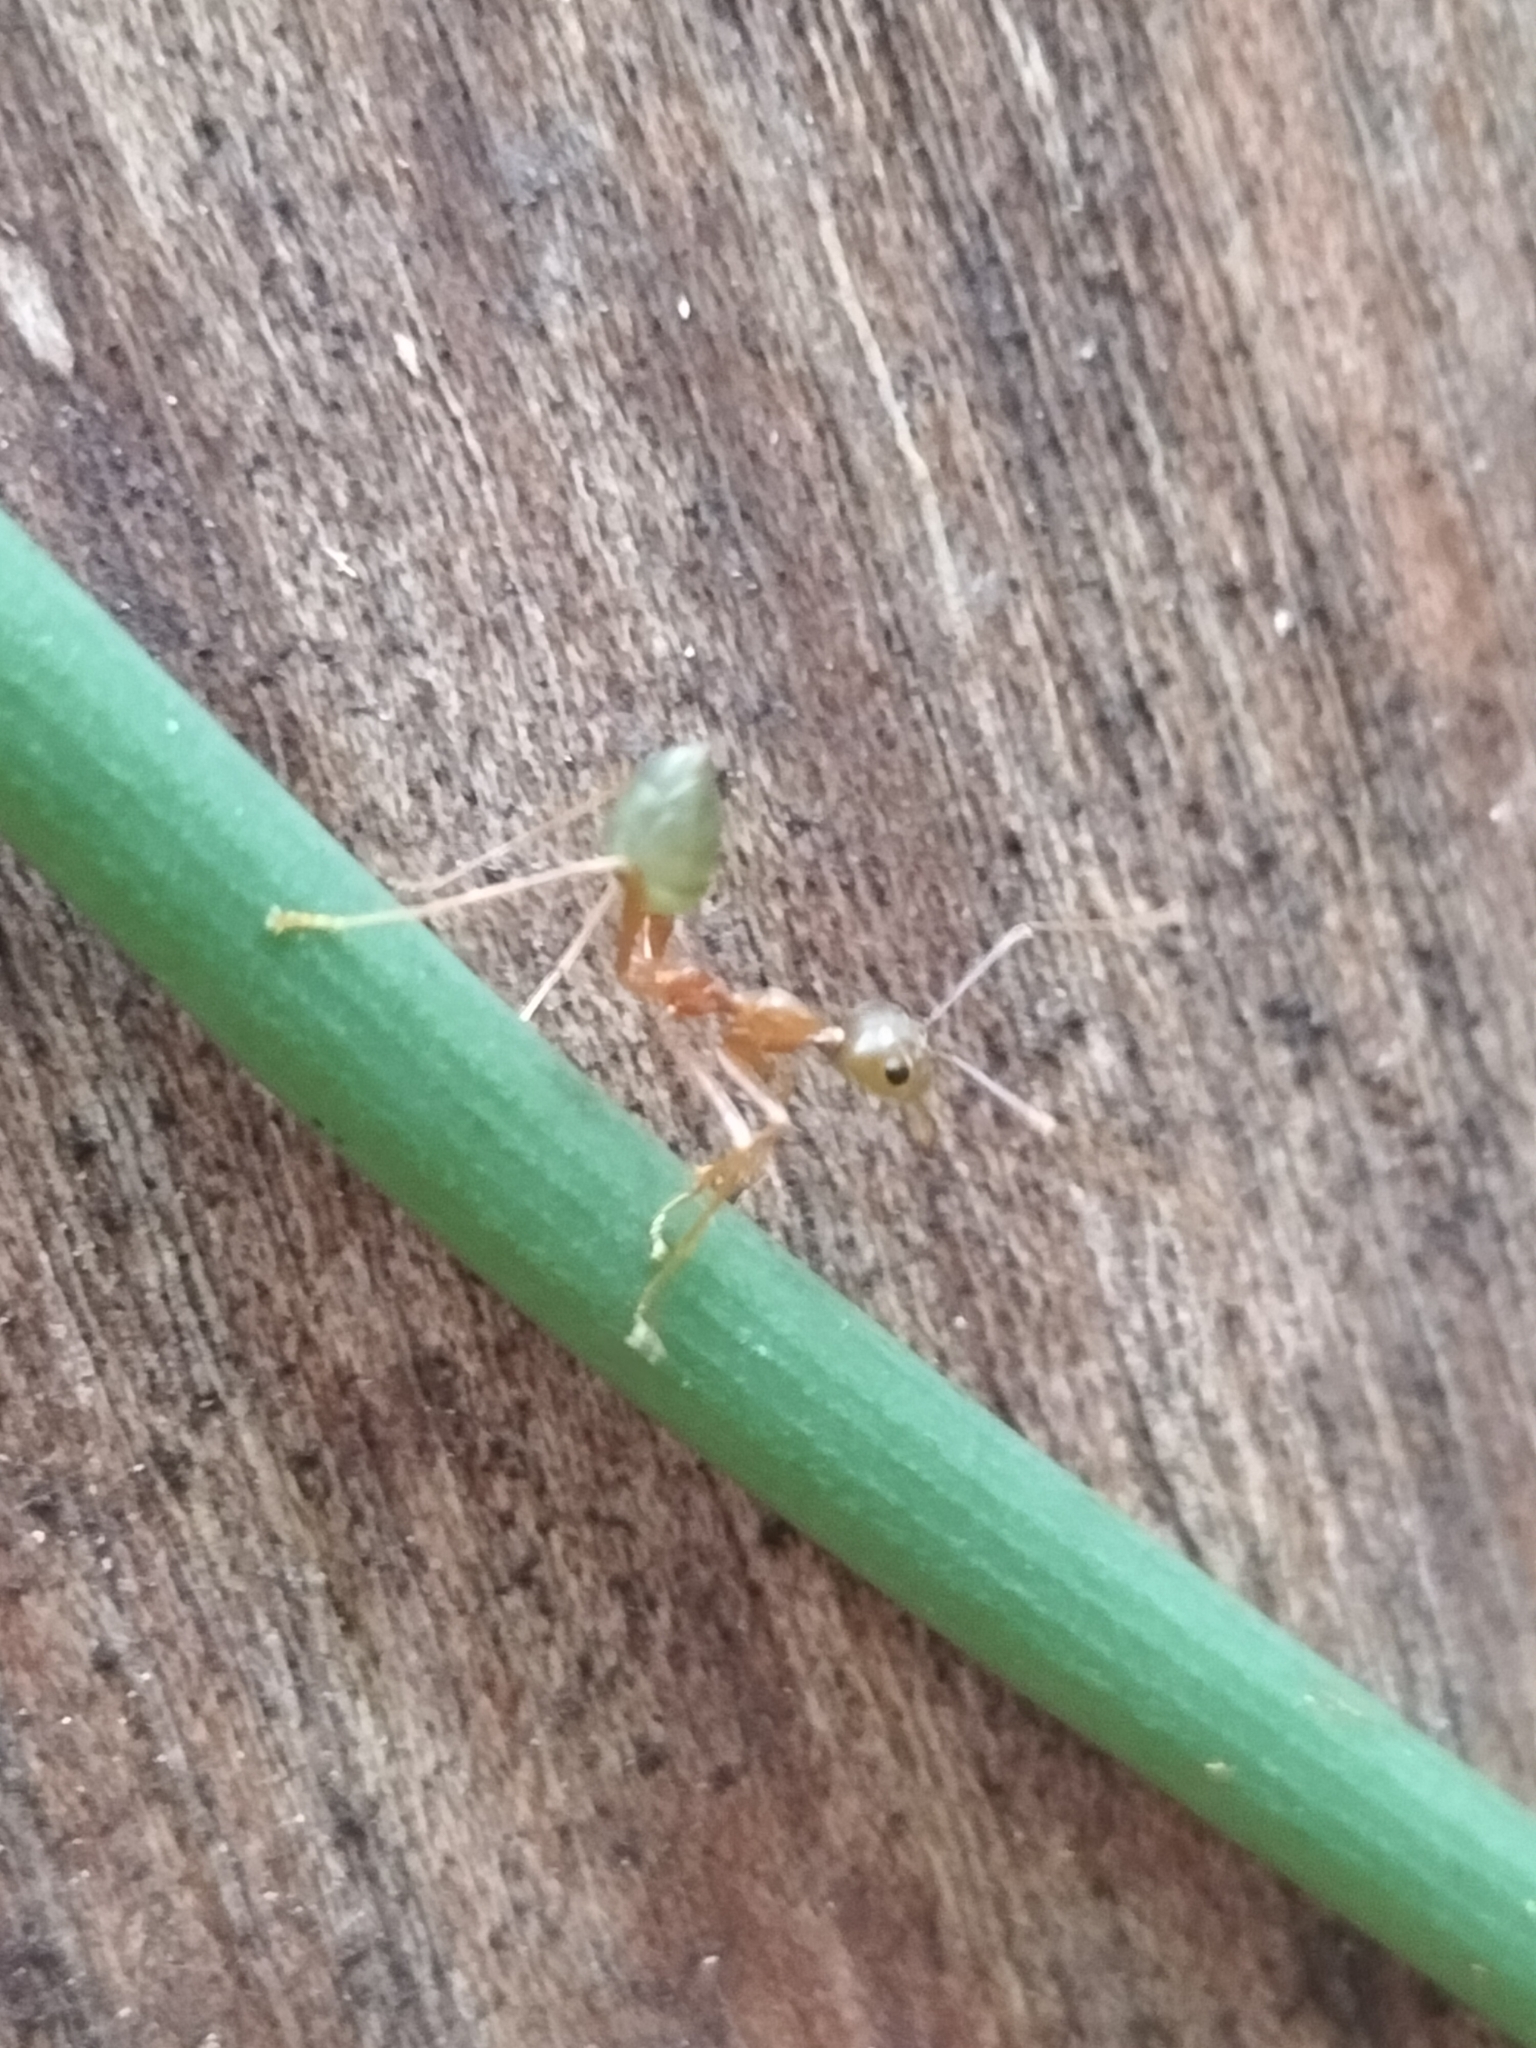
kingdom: Animalia
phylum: Arthropoda
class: Insecta
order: Hymenoptera
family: Formicidae
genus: Oecophylla
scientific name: Oecophylla smaragdina
